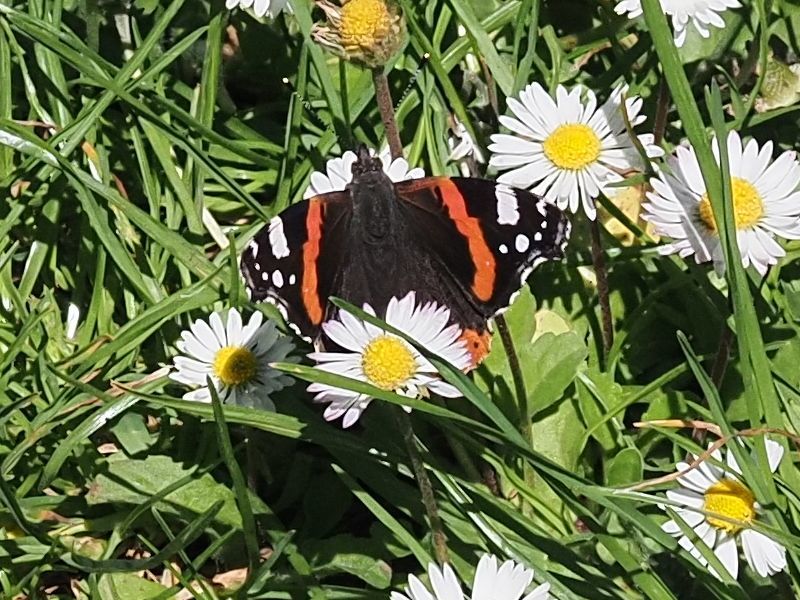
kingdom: Animalia
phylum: Arthropoda
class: Insecta
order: Lepidoptera
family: Nymphalidae
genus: Vanessa
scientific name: Vanessa atalanta
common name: Red admiral
